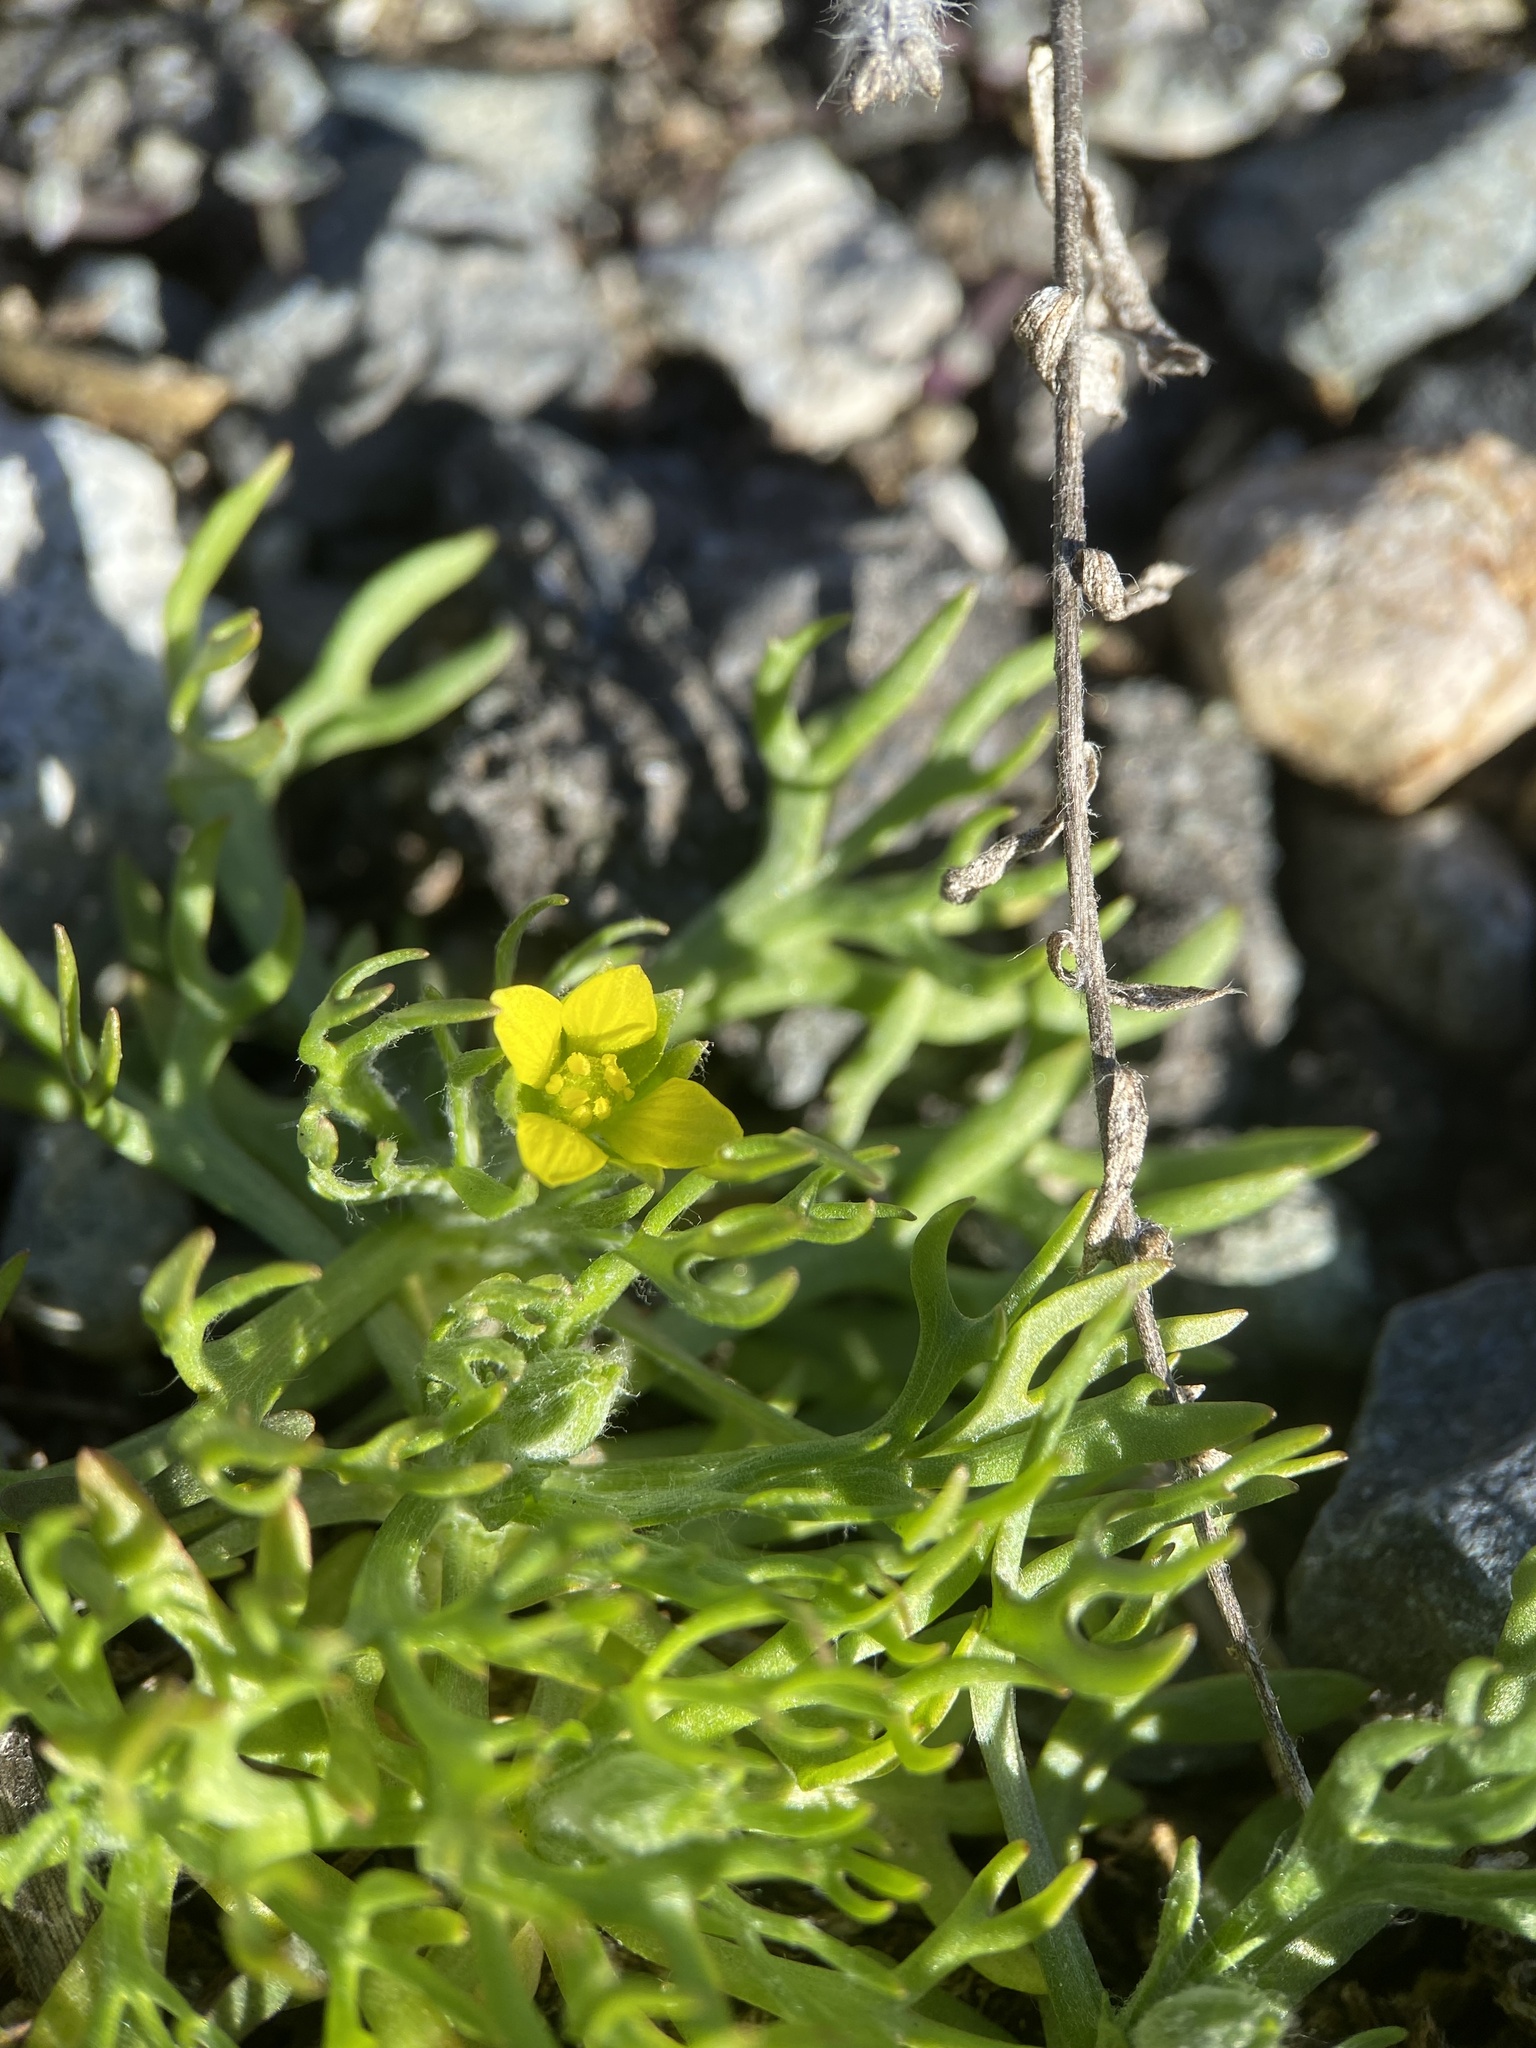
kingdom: Plantae
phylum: Tracheophyta
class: Magnoliopsida
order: Ranunculales
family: Ranunculaceae
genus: Ceratocephala
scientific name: Ceratocephala orthoceras
